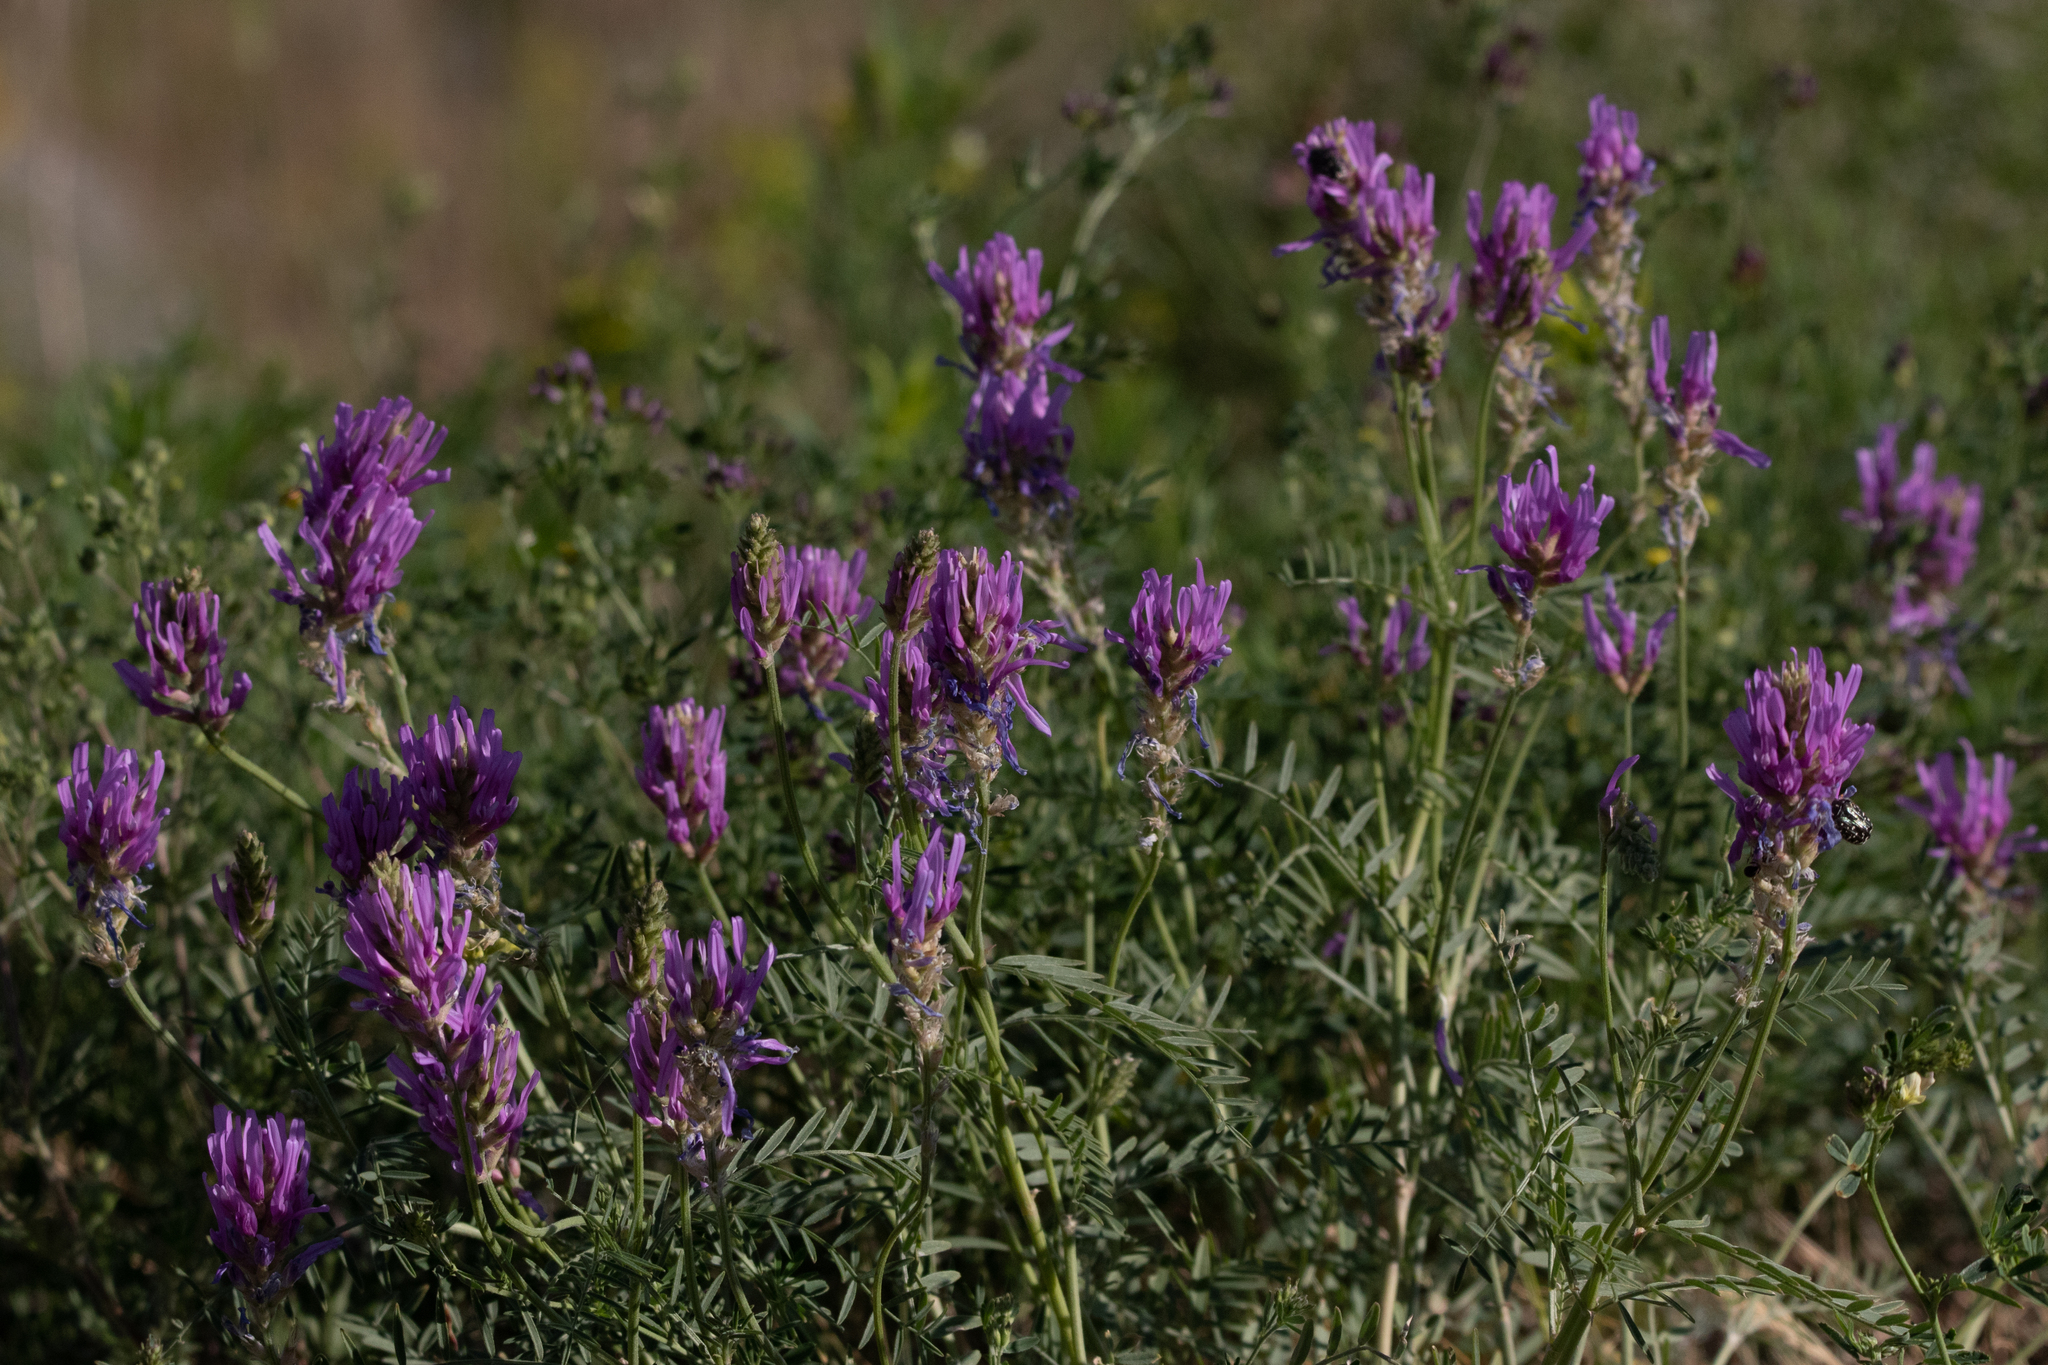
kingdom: Plantae
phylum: Tracheophyta
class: Magnoliopsida
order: Fabales
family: Fabaceae
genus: Astragalus
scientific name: Astragalus onobrychis
